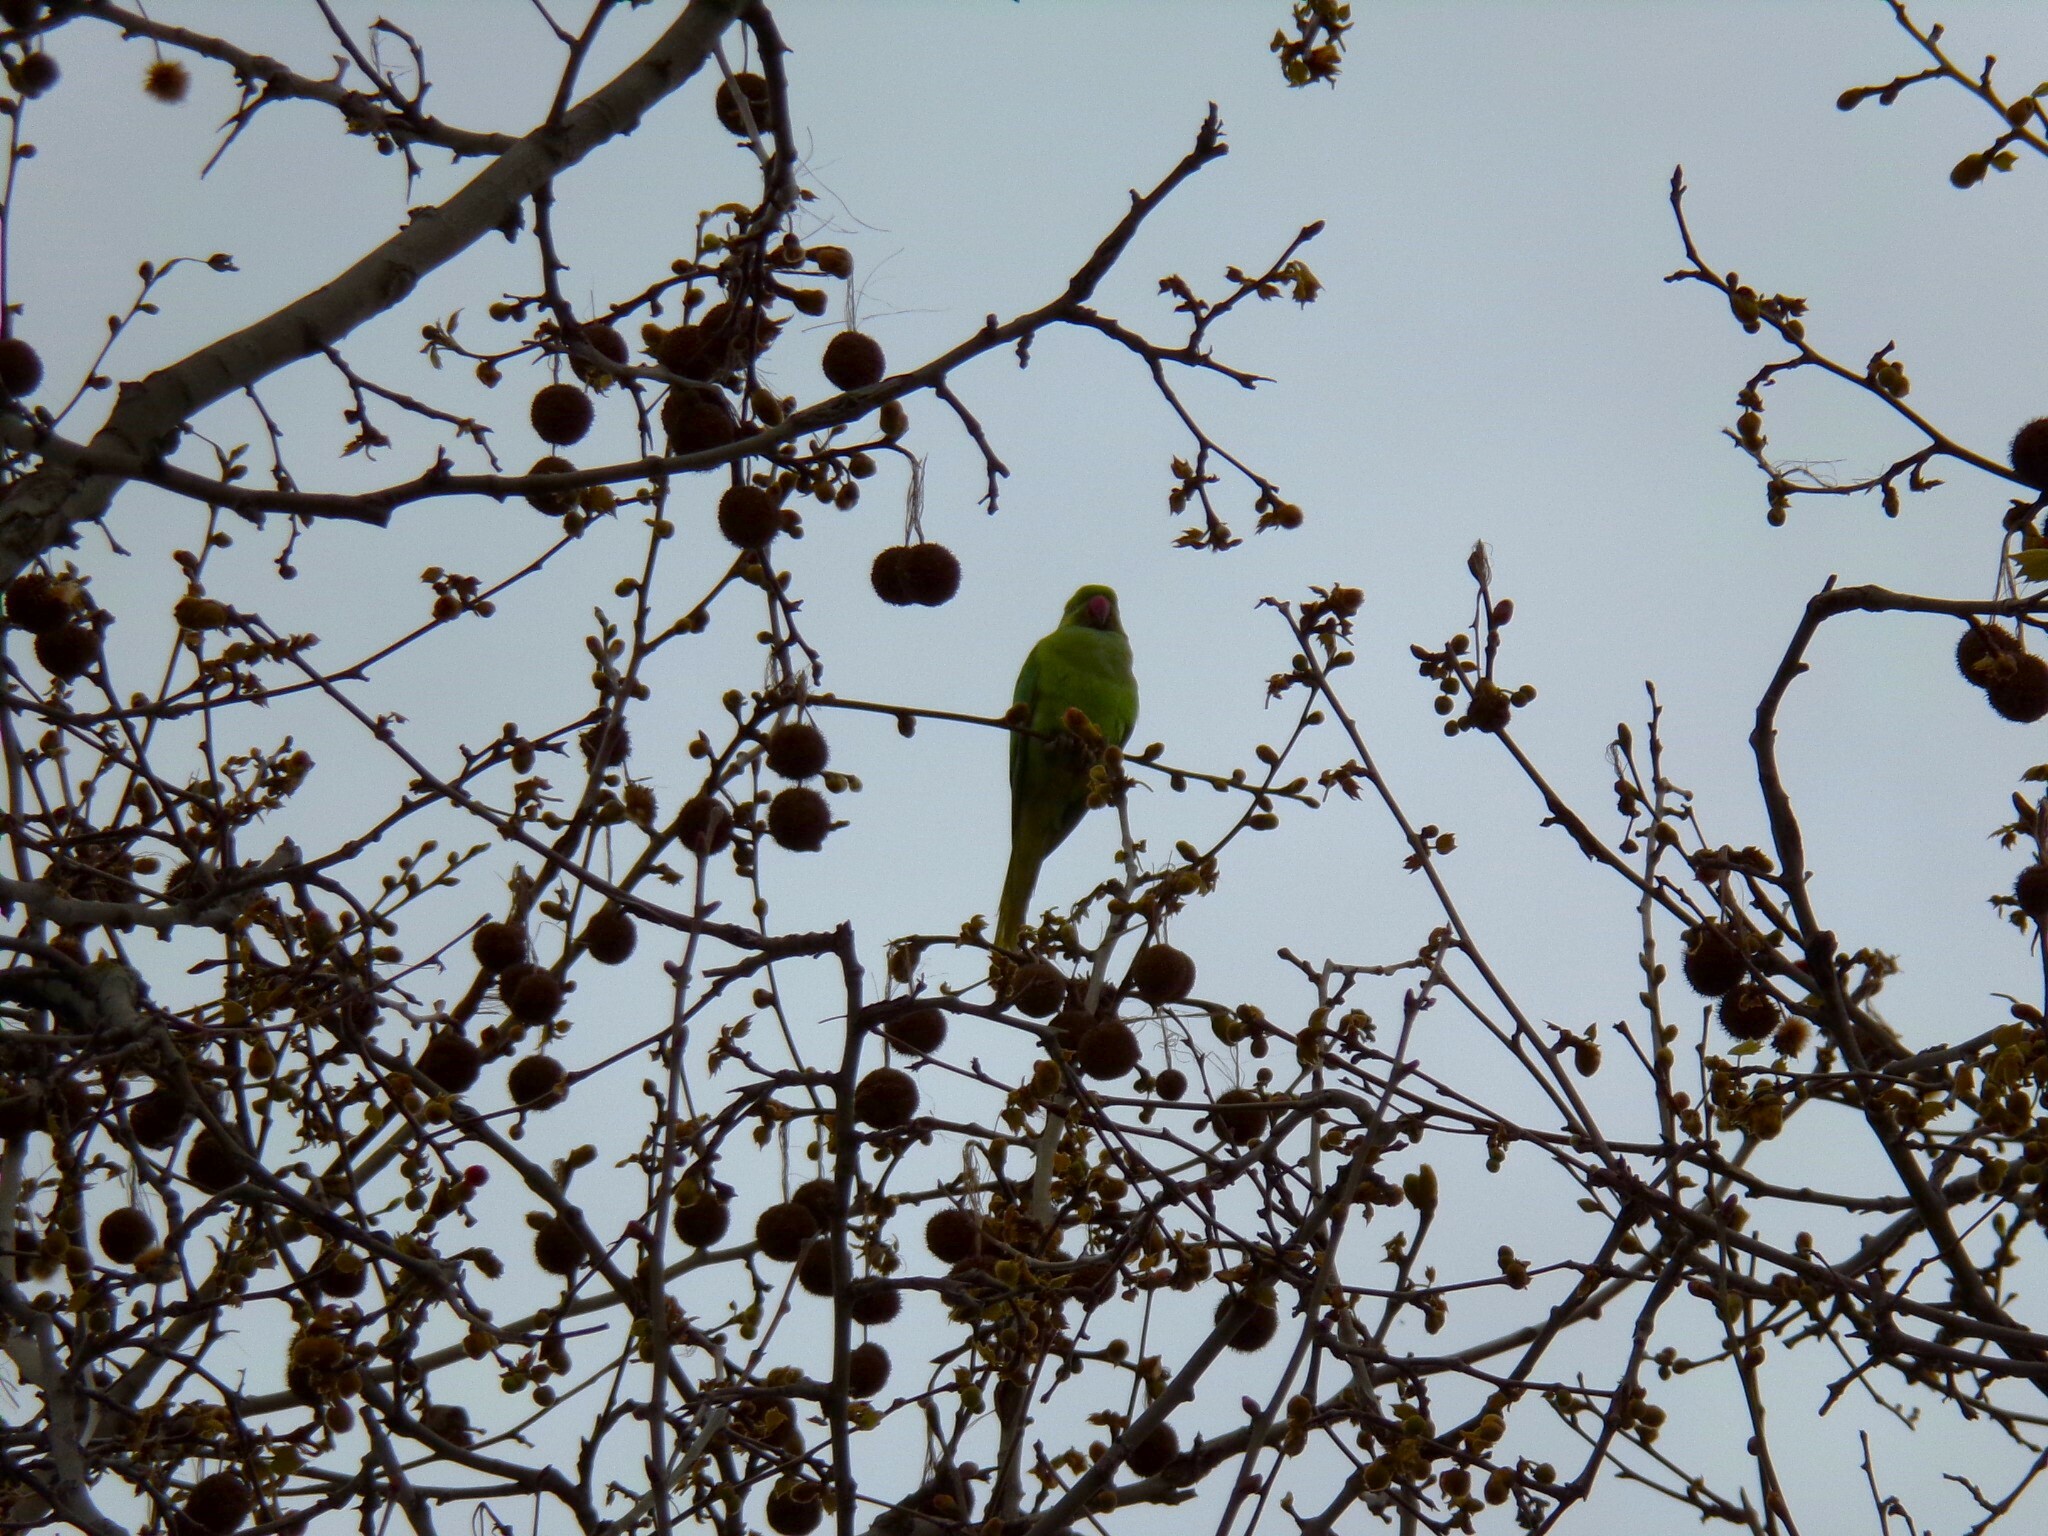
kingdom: Animalia
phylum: Chordata
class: Aves
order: Psittaciformes
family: Psittacidae
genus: Psittacula
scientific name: Psittacula krameri
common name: Rose-ringed parakeet
